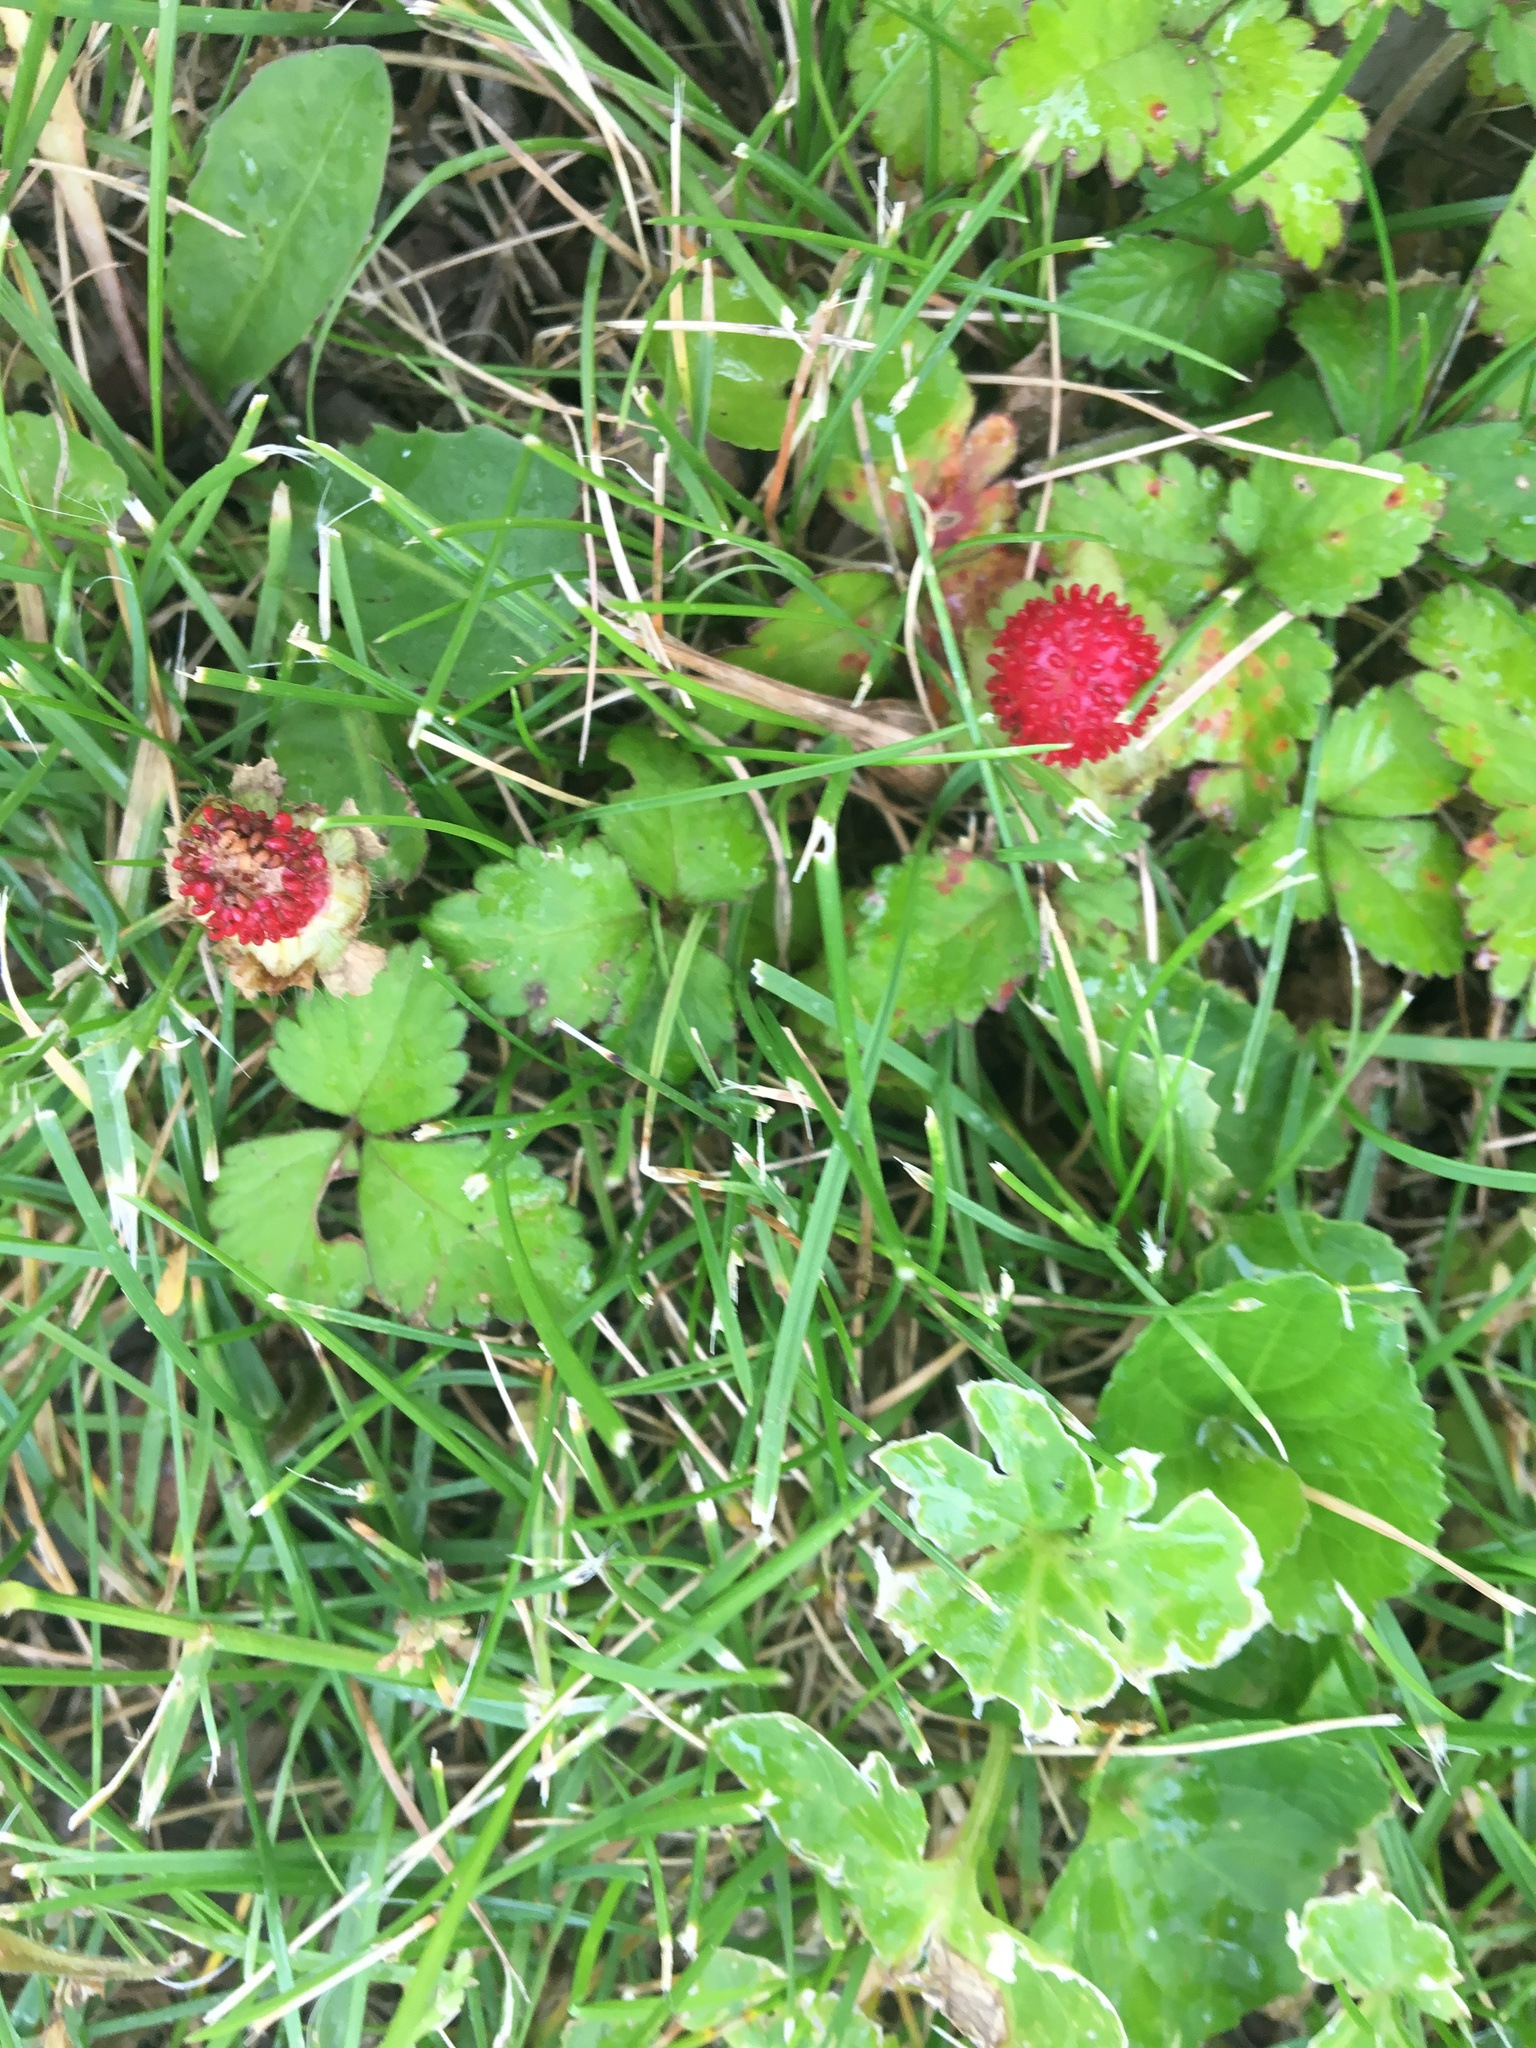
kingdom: Plantae
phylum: Tracheophyta
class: Magnoliopsida
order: Rosales
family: Rosaceae
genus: Potentilla
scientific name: Potentilla indica
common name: Yellow-flowered strawberry
